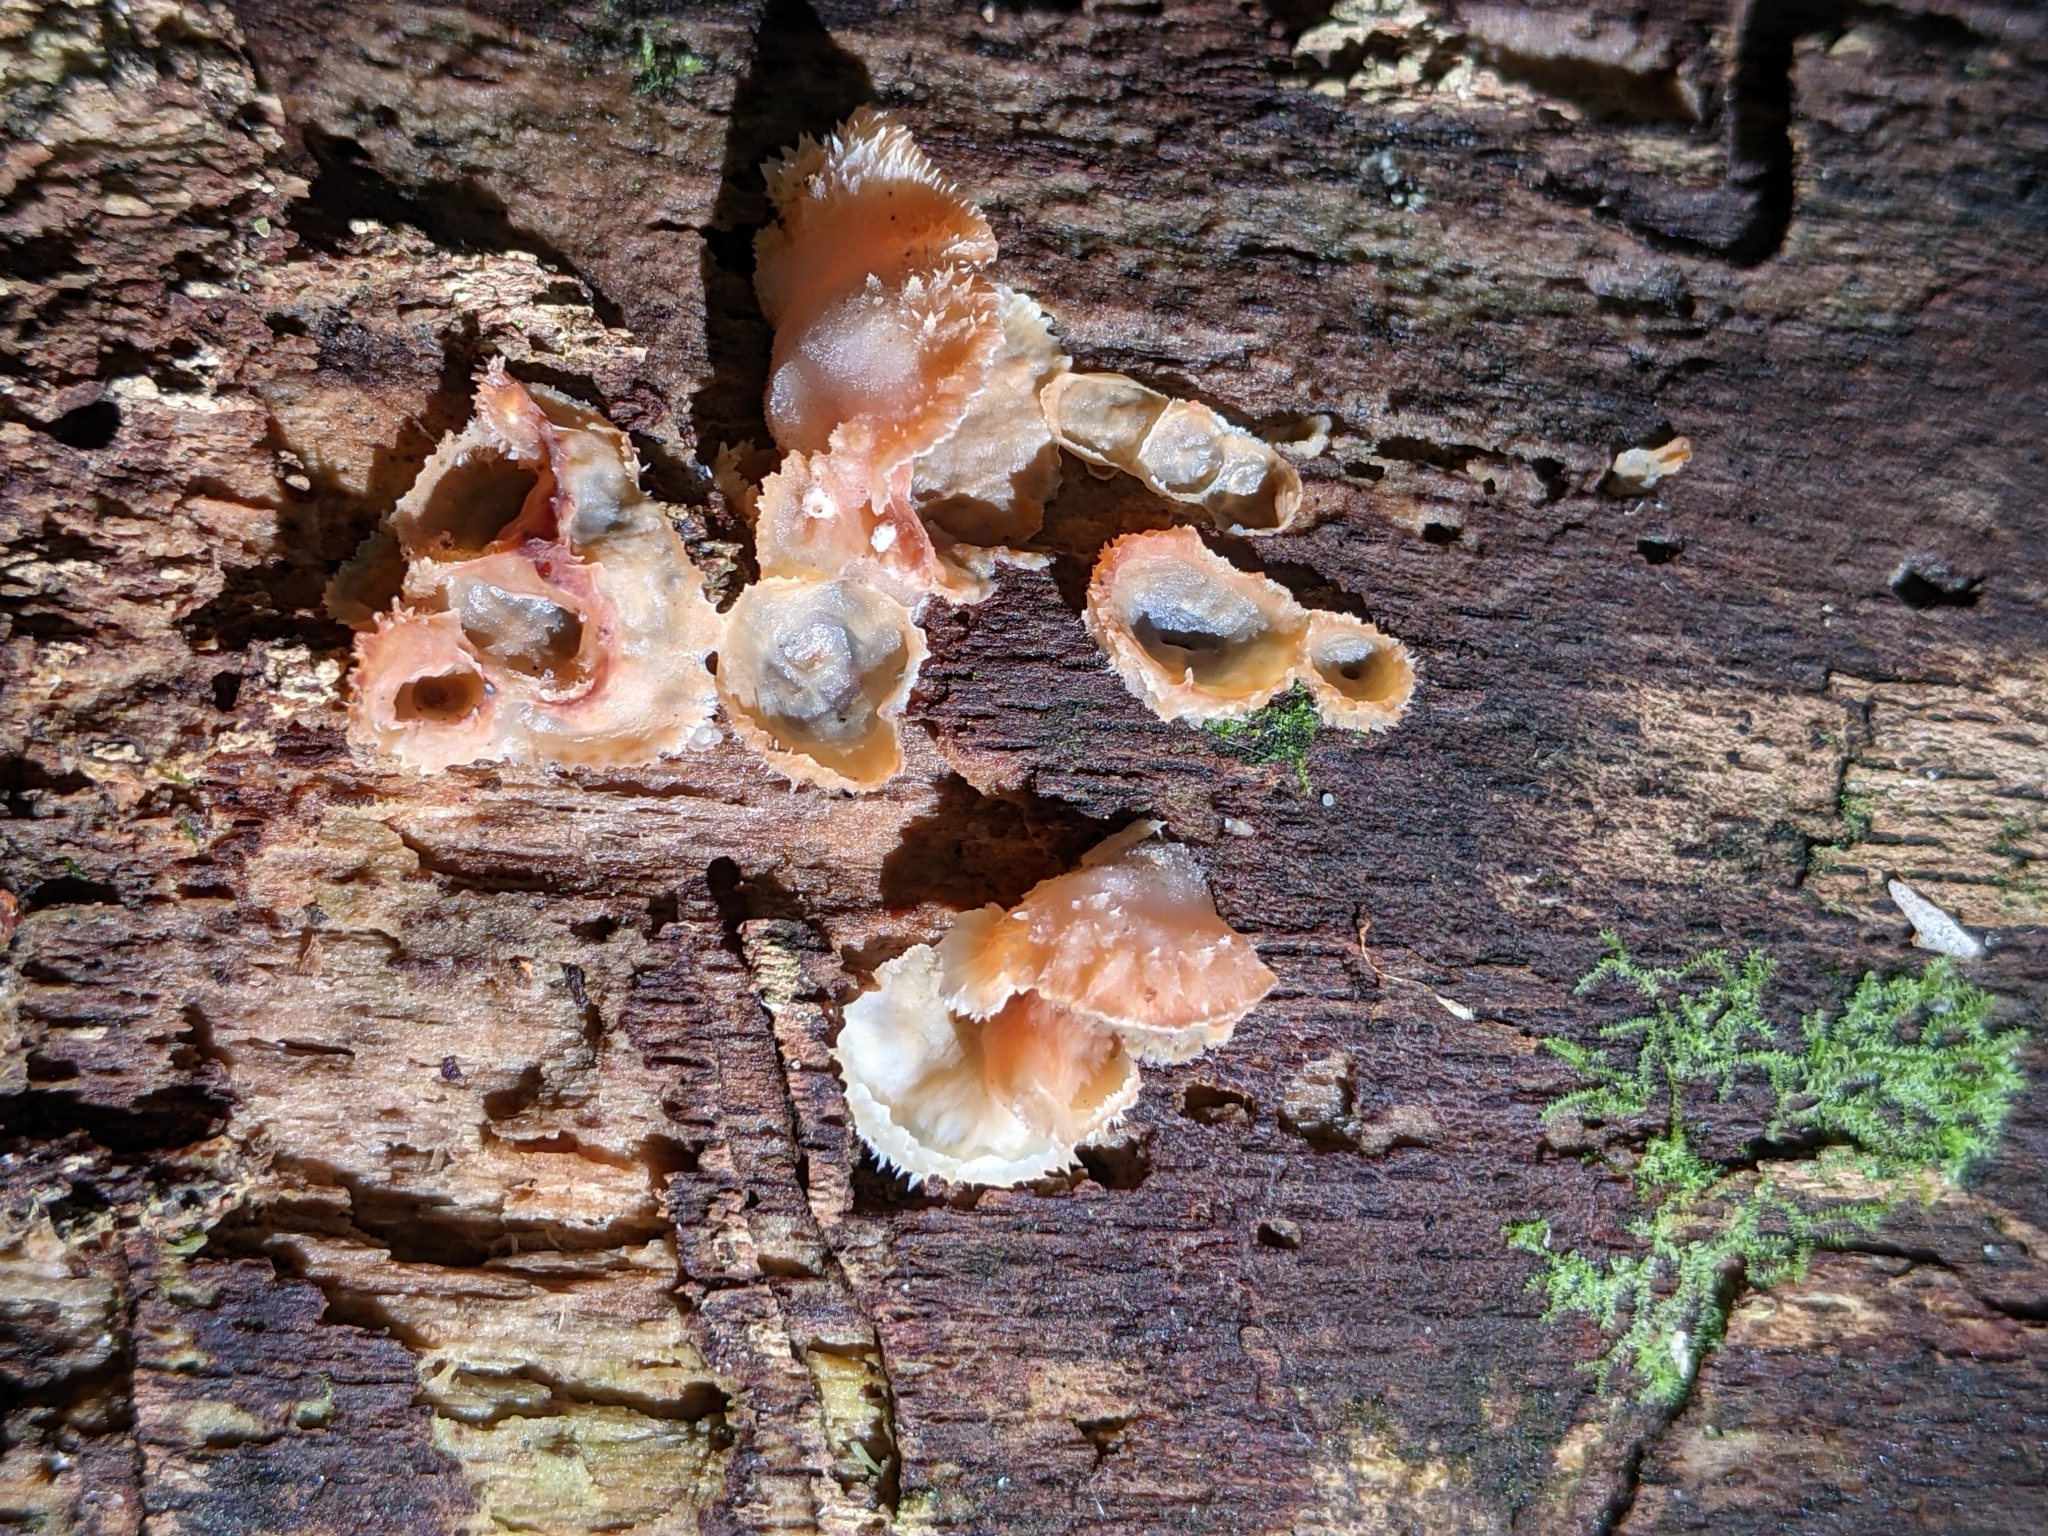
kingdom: Fungi
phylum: Basidiomycota
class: Agaricomycetes
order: Polyporales
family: Meruliaceae
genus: Phlebia
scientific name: Phlebia tremellosa
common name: Jelly rot
